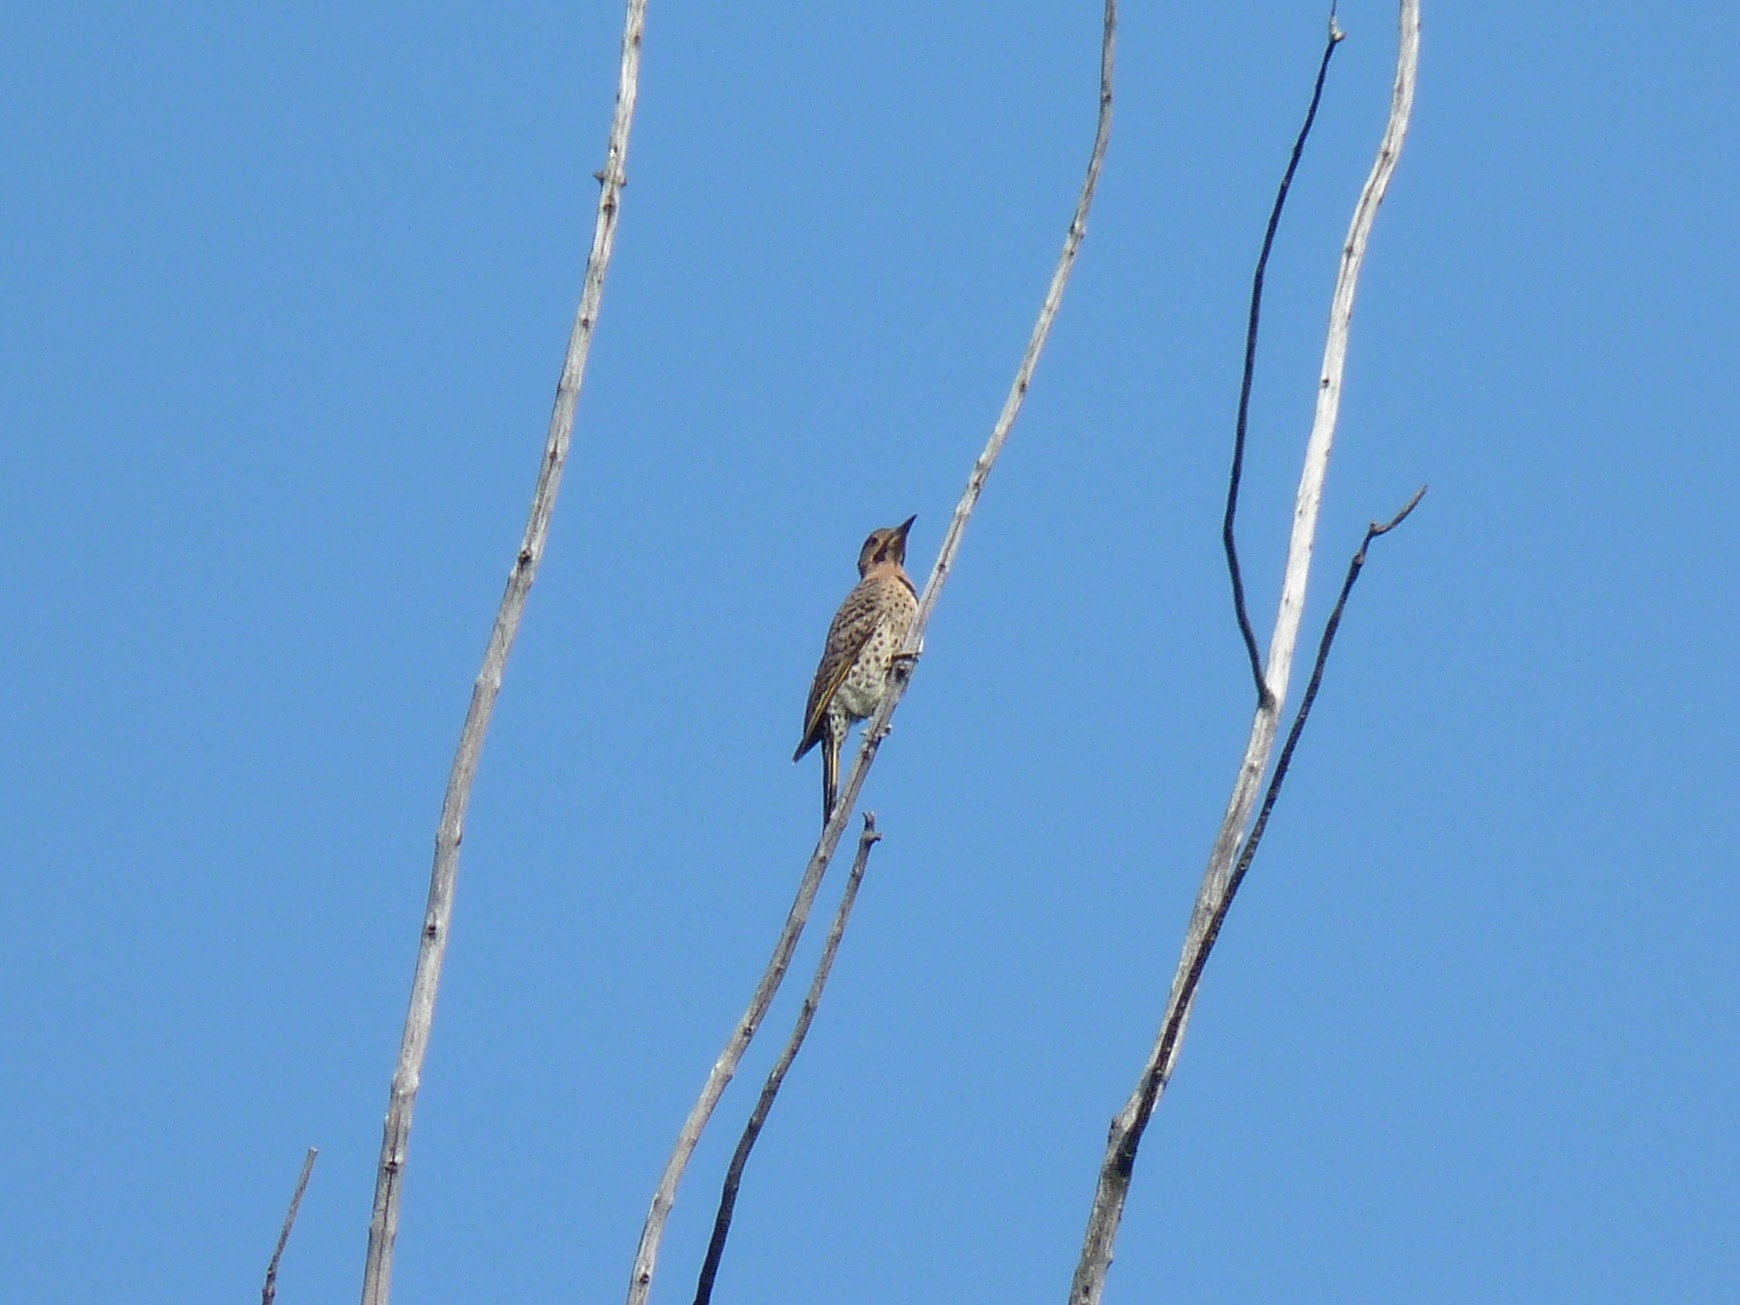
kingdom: Animalia
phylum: Chordata
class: Aves
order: Piciformes
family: Picidae
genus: Colaptes
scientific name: Colaptes auratus
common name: Northern flicker
